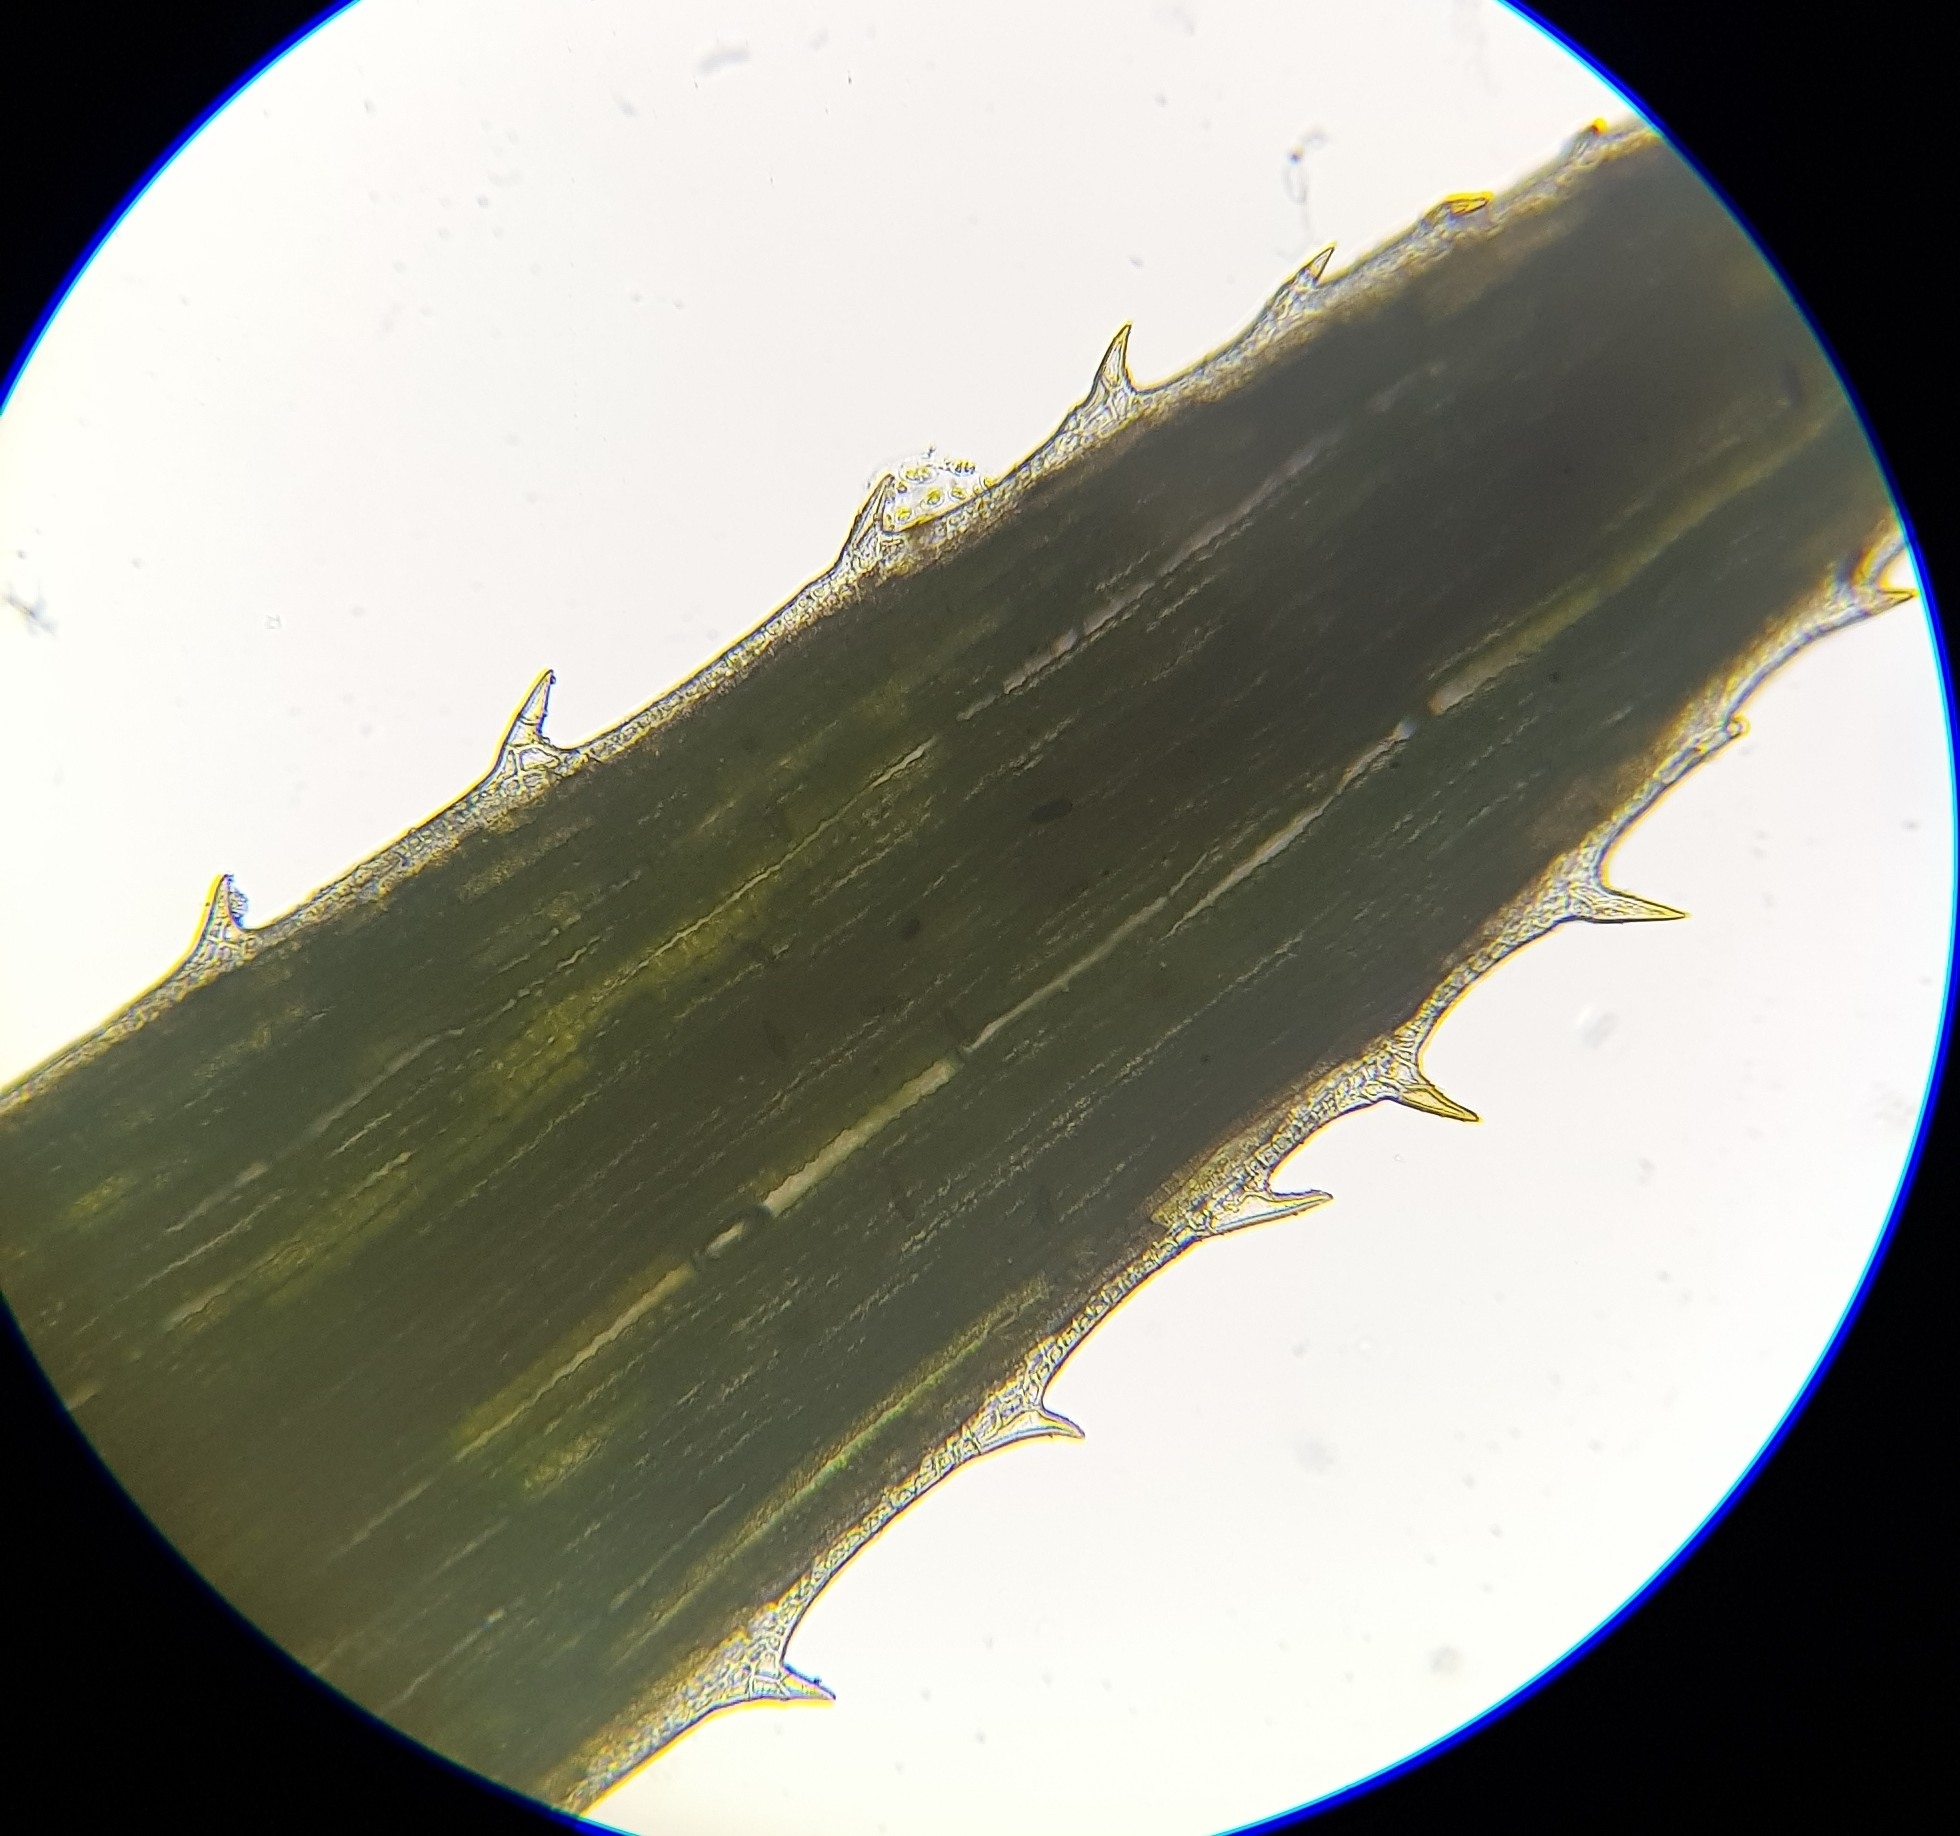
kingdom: Plantae
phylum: Bryophyta
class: Polytrichopsida
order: Polytrichales
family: Polytrichaceae
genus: Pogonatum
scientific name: Pogonatum urnigerum
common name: Urn hair moss
